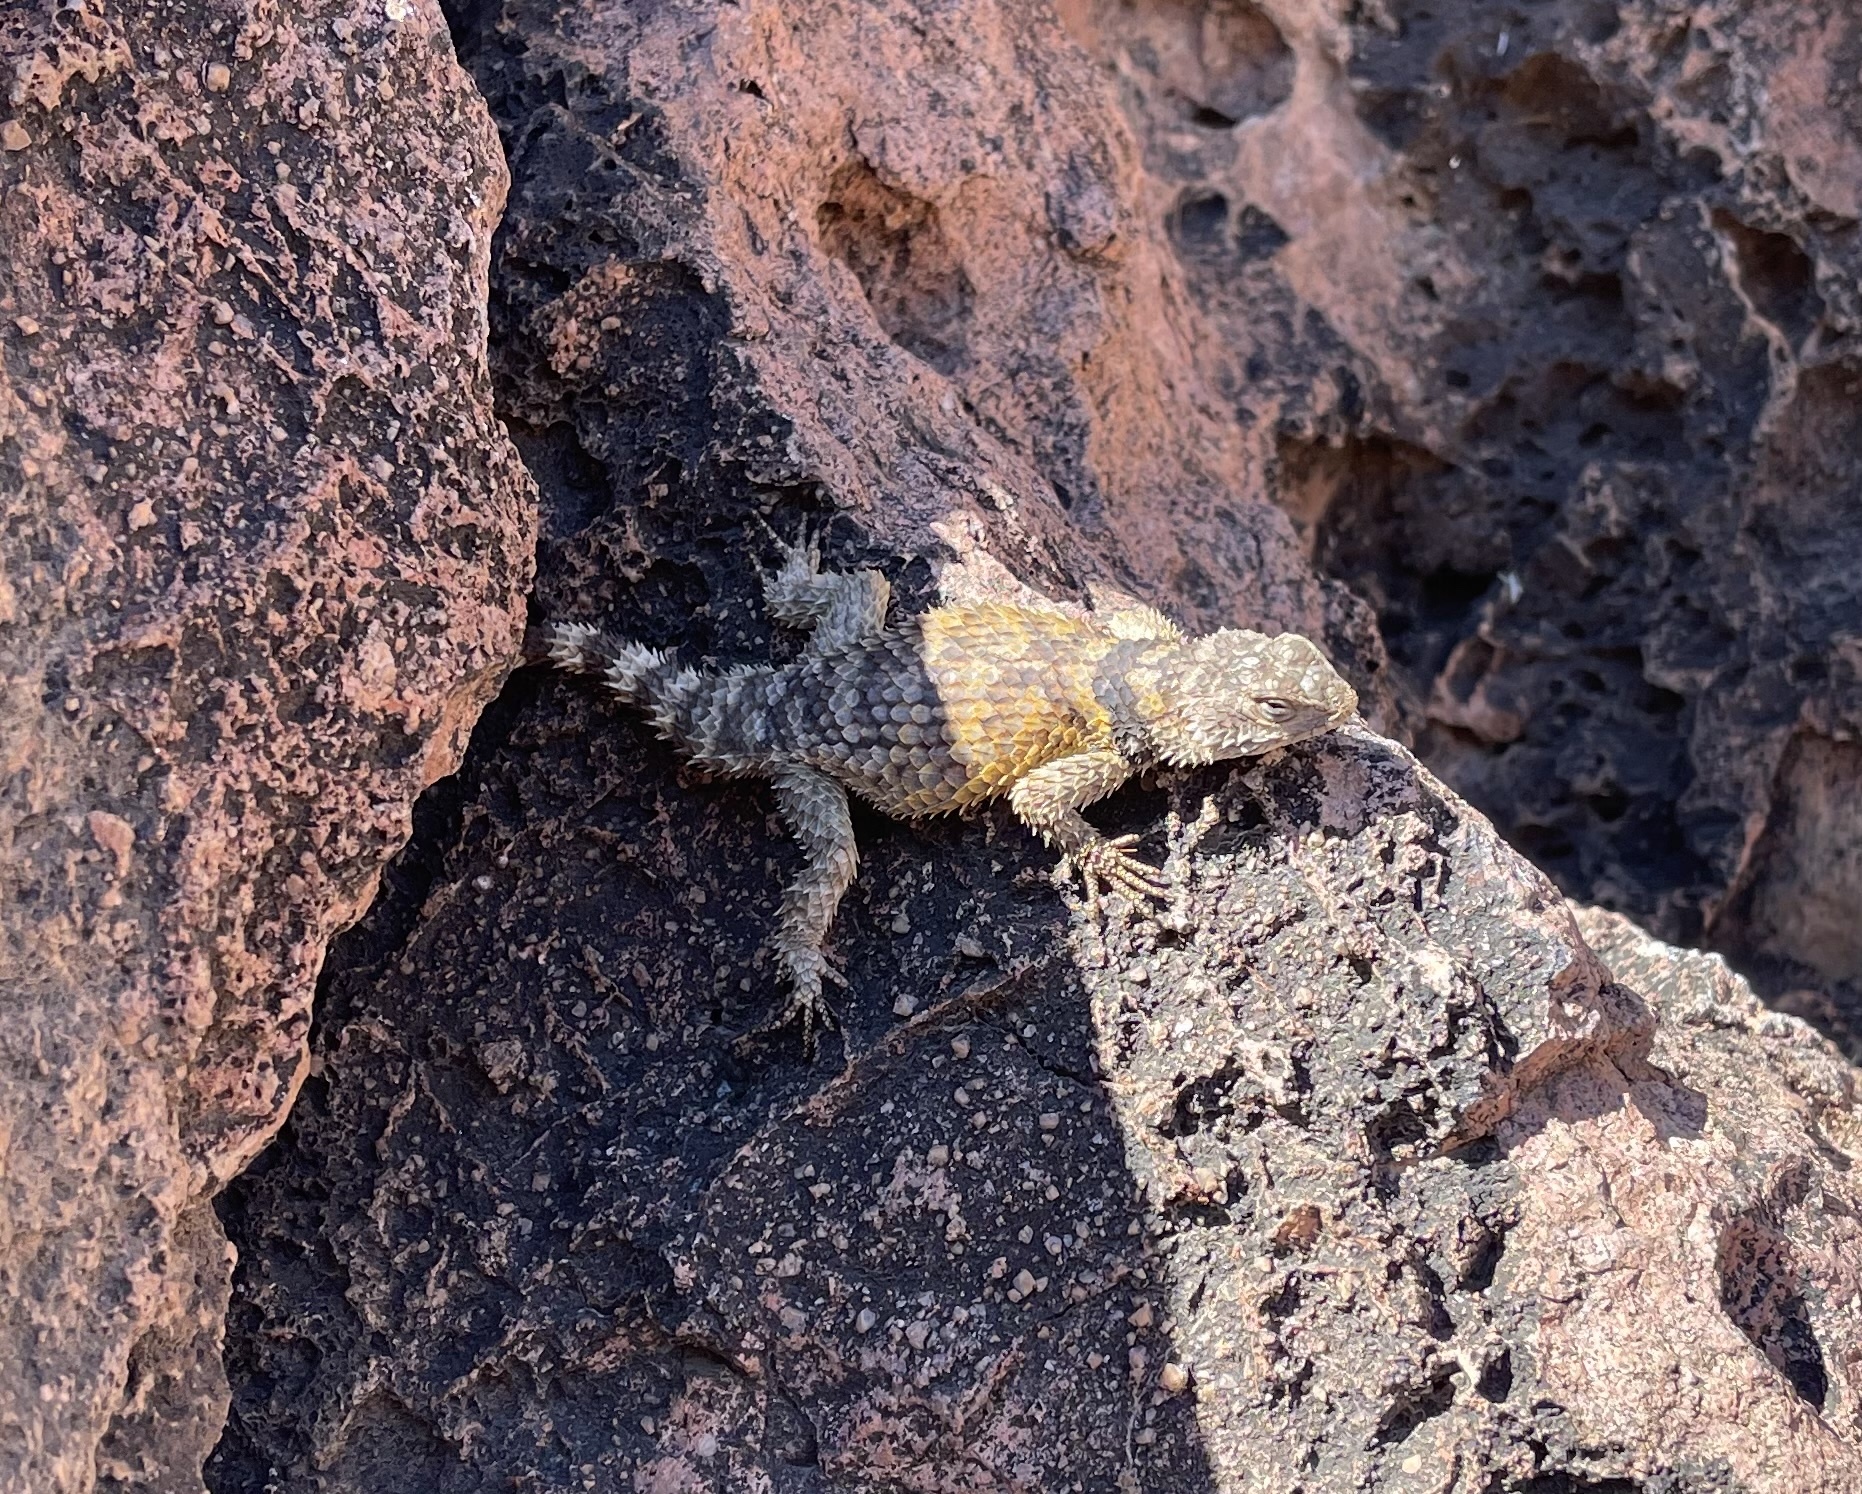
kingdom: Animalia
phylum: Chordata
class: Squamata
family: Phrynosomatidae
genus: Sceloporus
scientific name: Sceloporus poinsettii
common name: Crevice spiny lizard
